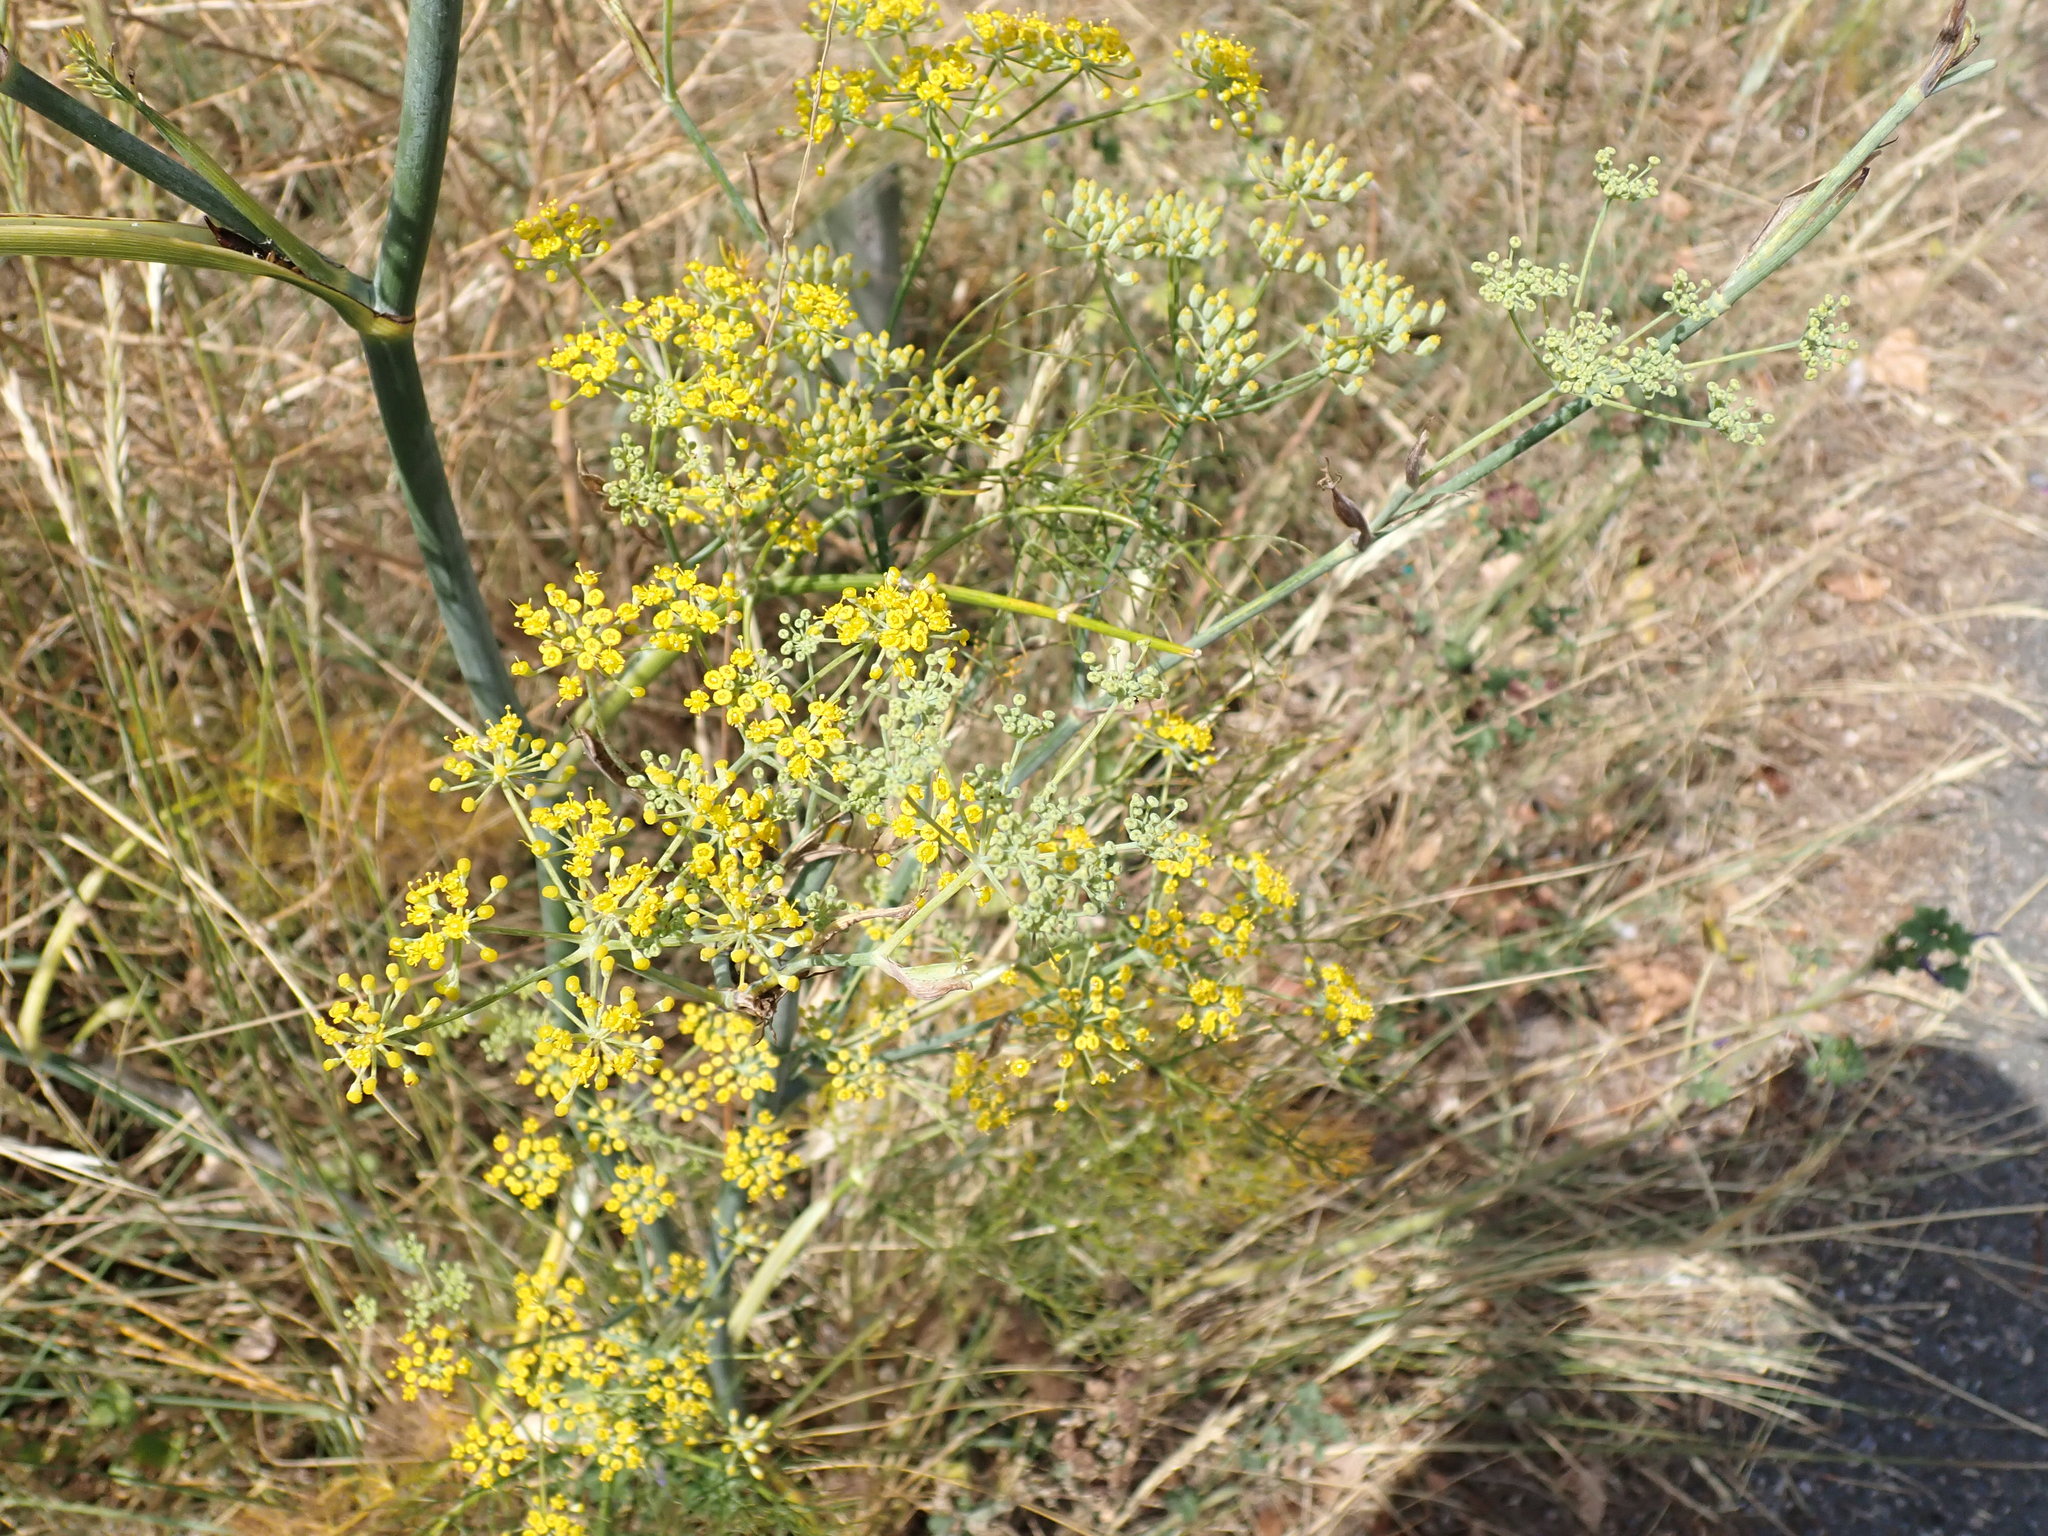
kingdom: Plantae
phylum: Tracheophyta
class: Magnoliopsida
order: Apiales
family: Apiaceae
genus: Foeniculum
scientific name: Foeniculum vulgare
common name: Fennel
